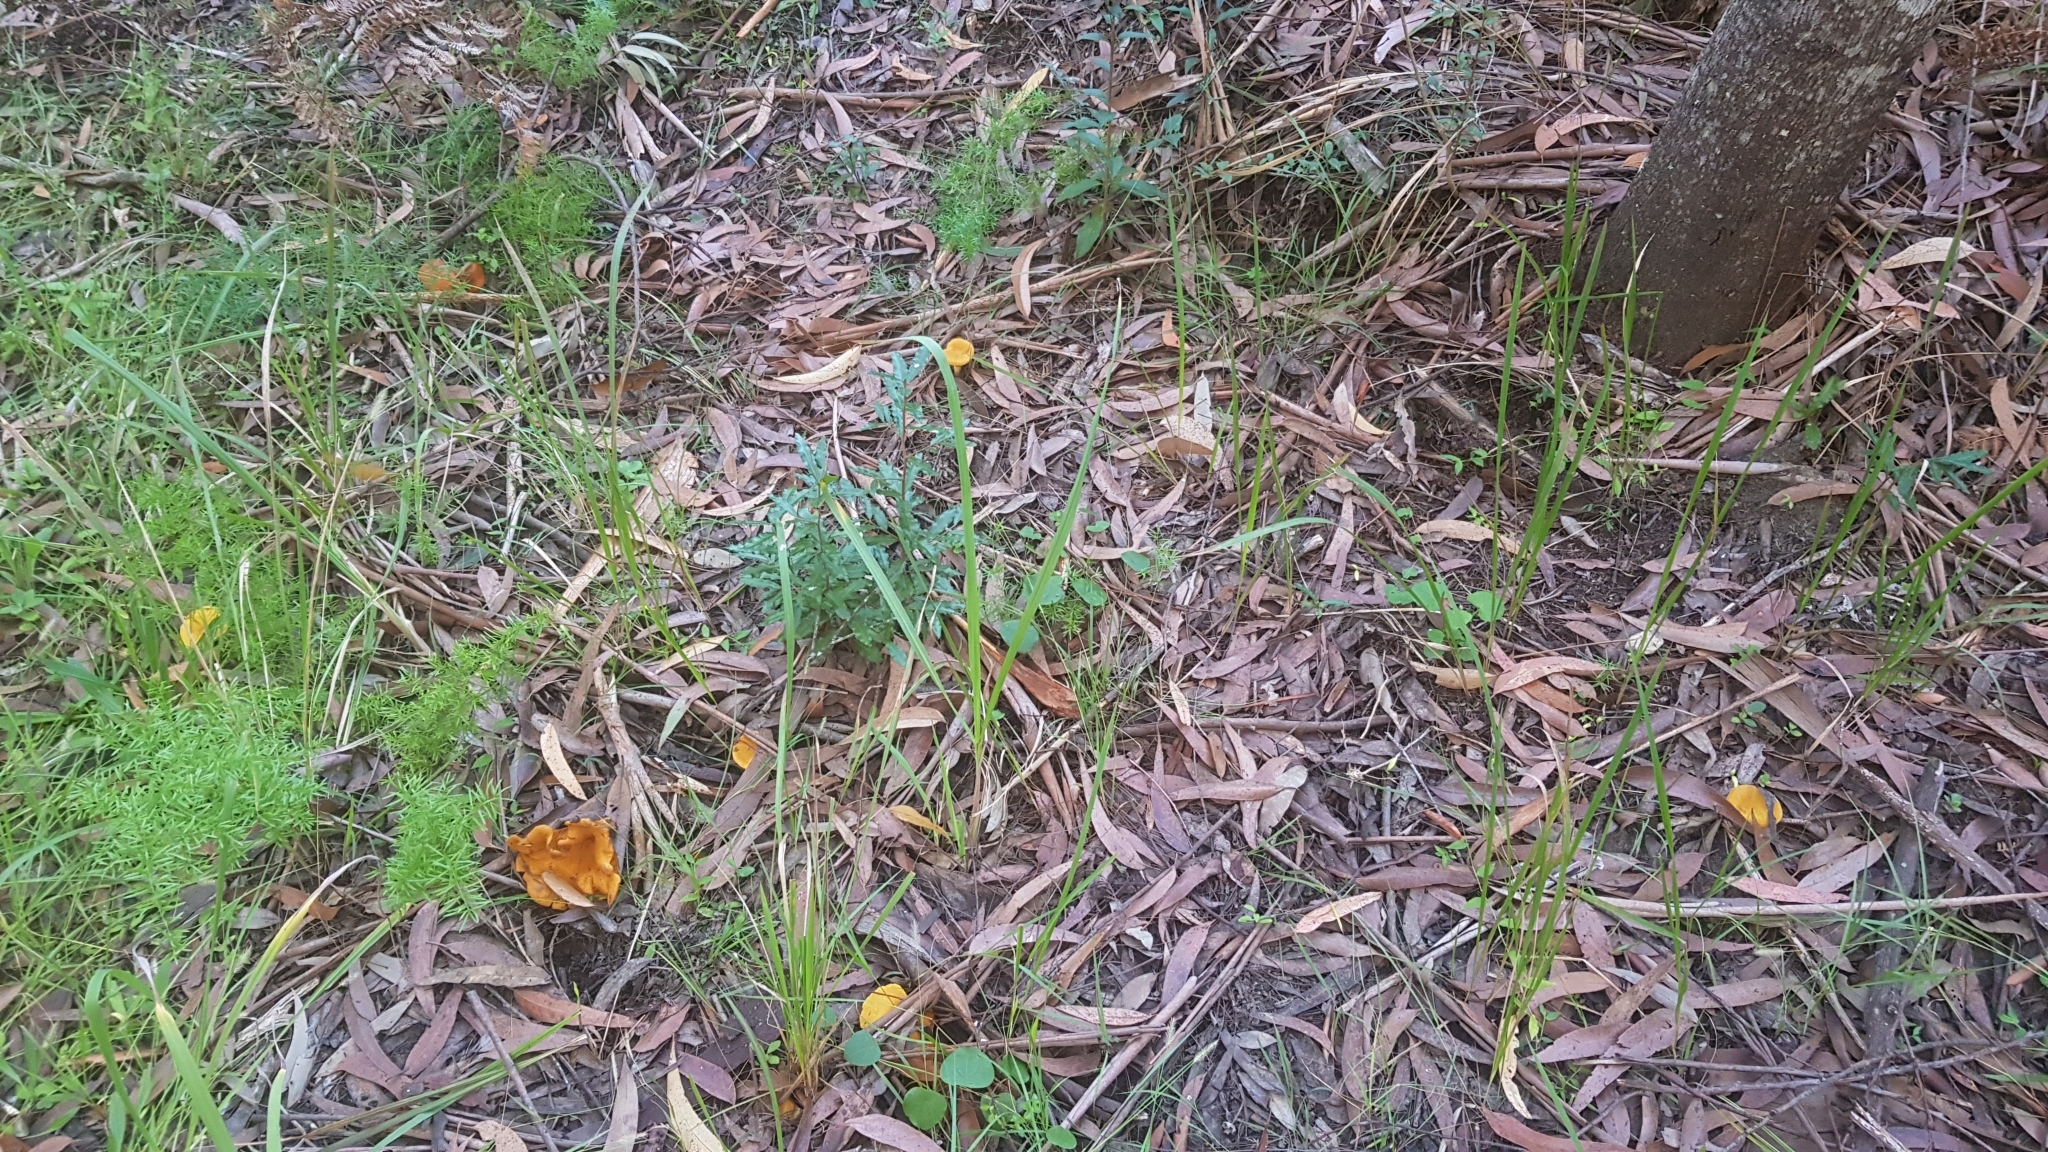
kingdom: Fungi
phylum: Basidiomycota
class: Agaricomycetes
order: Boletales
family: Serpulaceae
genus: Austropaxillus
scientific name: Austropaxillus infundibuliformis
